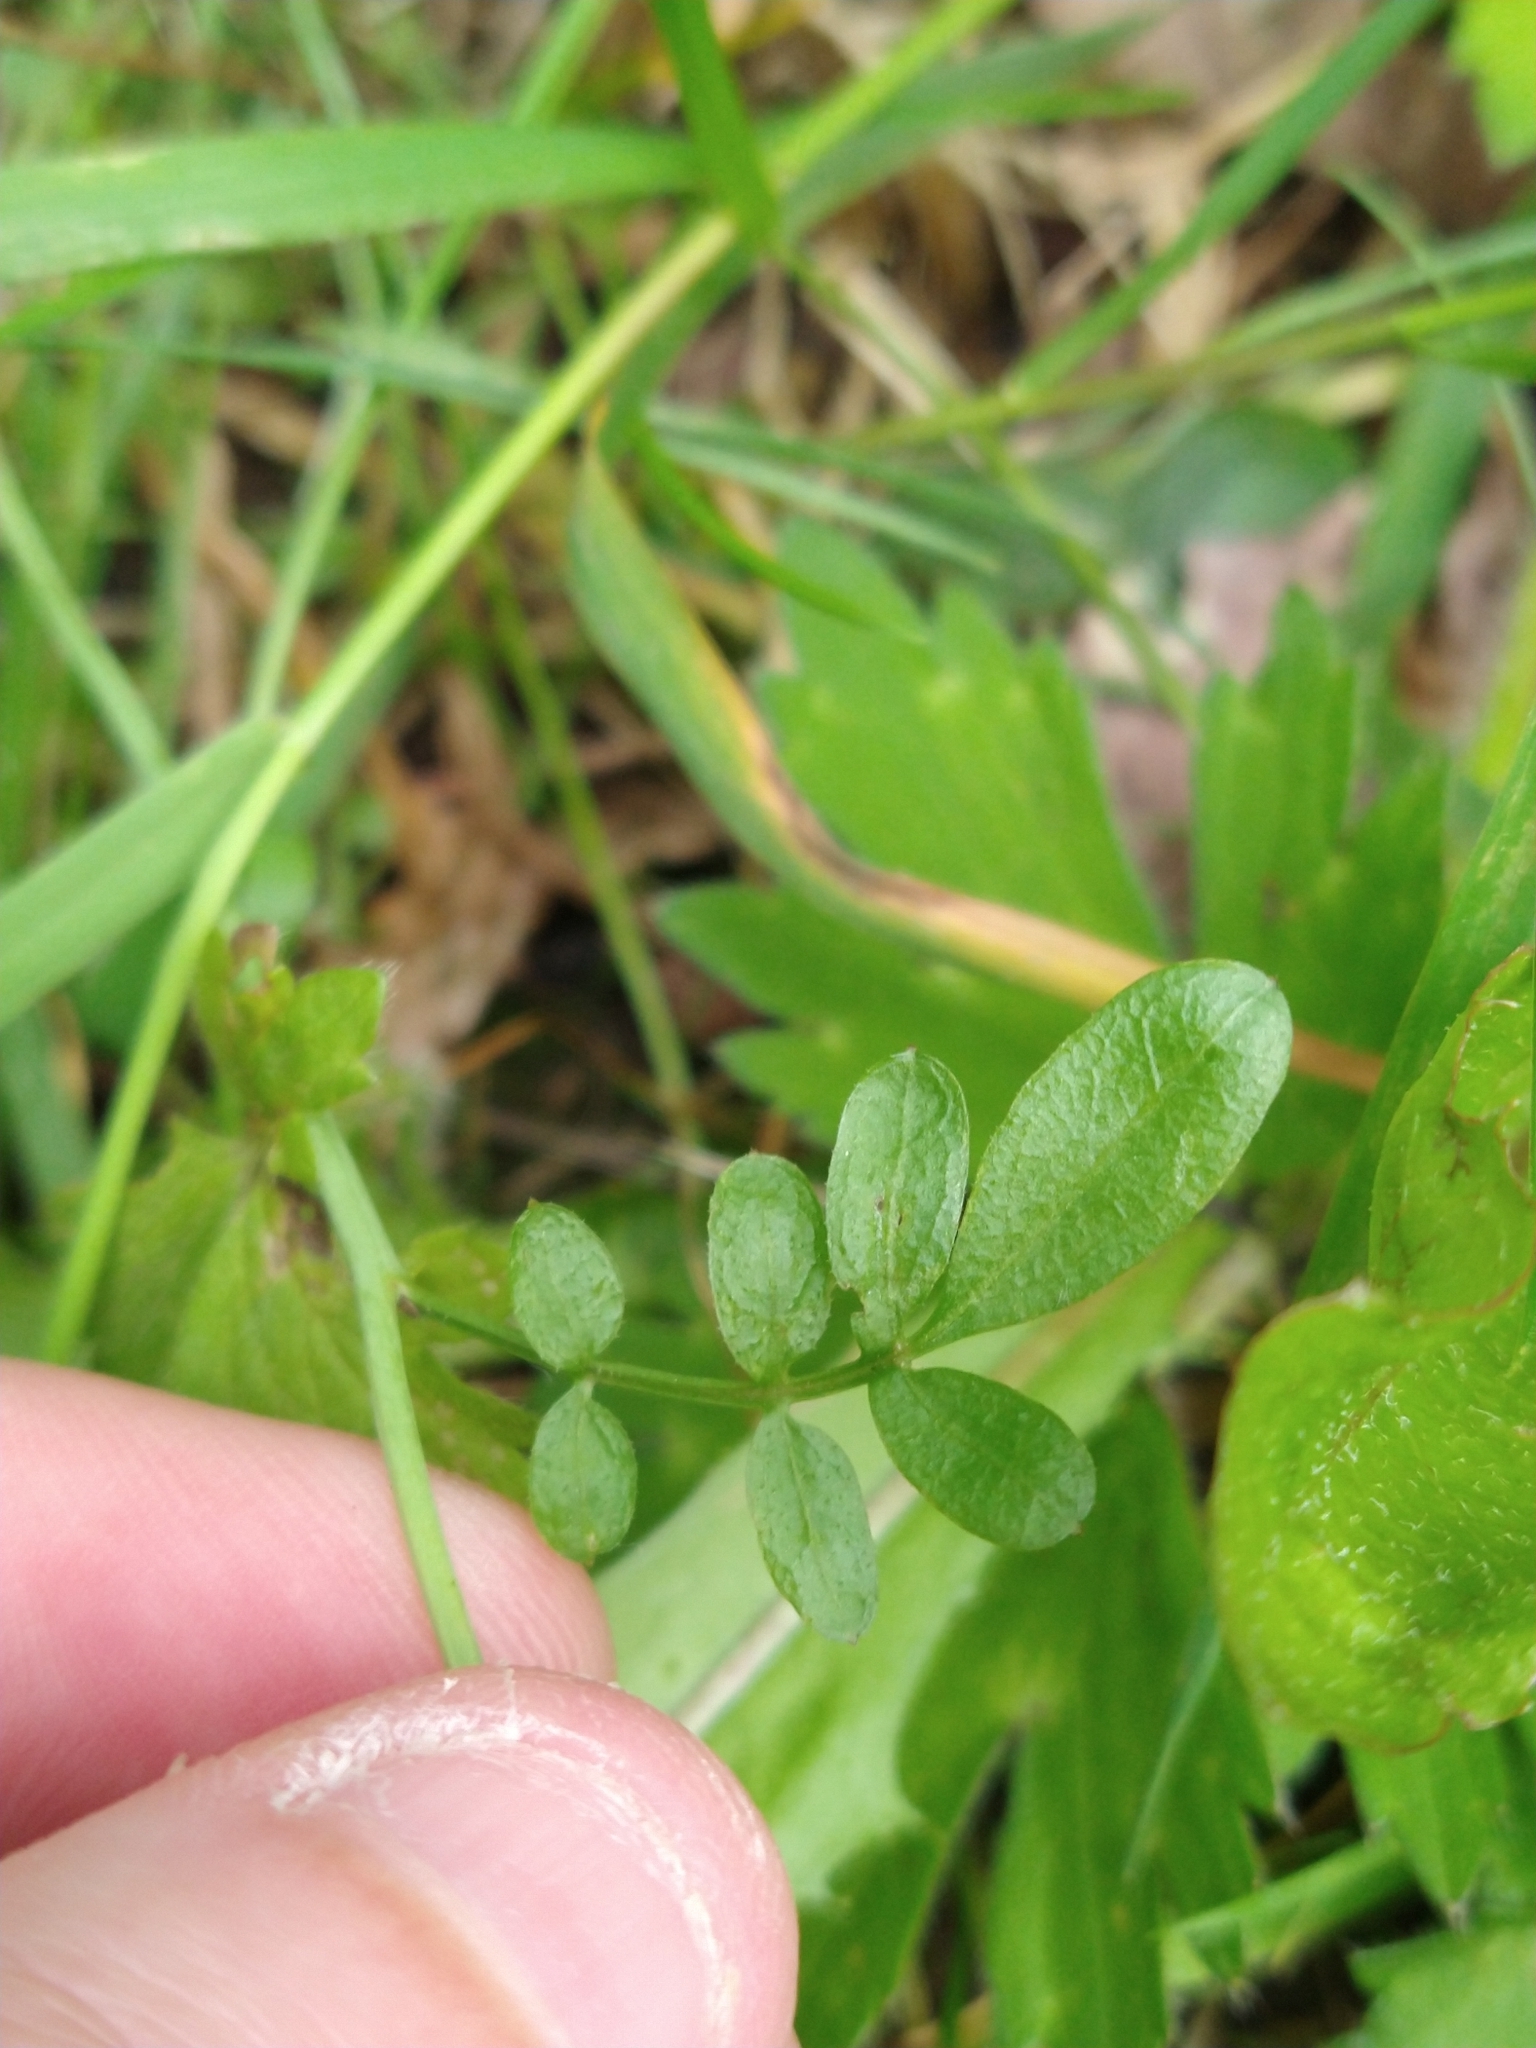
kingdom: Plantae
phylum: Tracheophyta
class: Magnoliopsida
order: Brassicales
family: Brassicaceae
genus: Cardamine
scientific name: Cardamine pratensis
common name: Cuckoo flower
